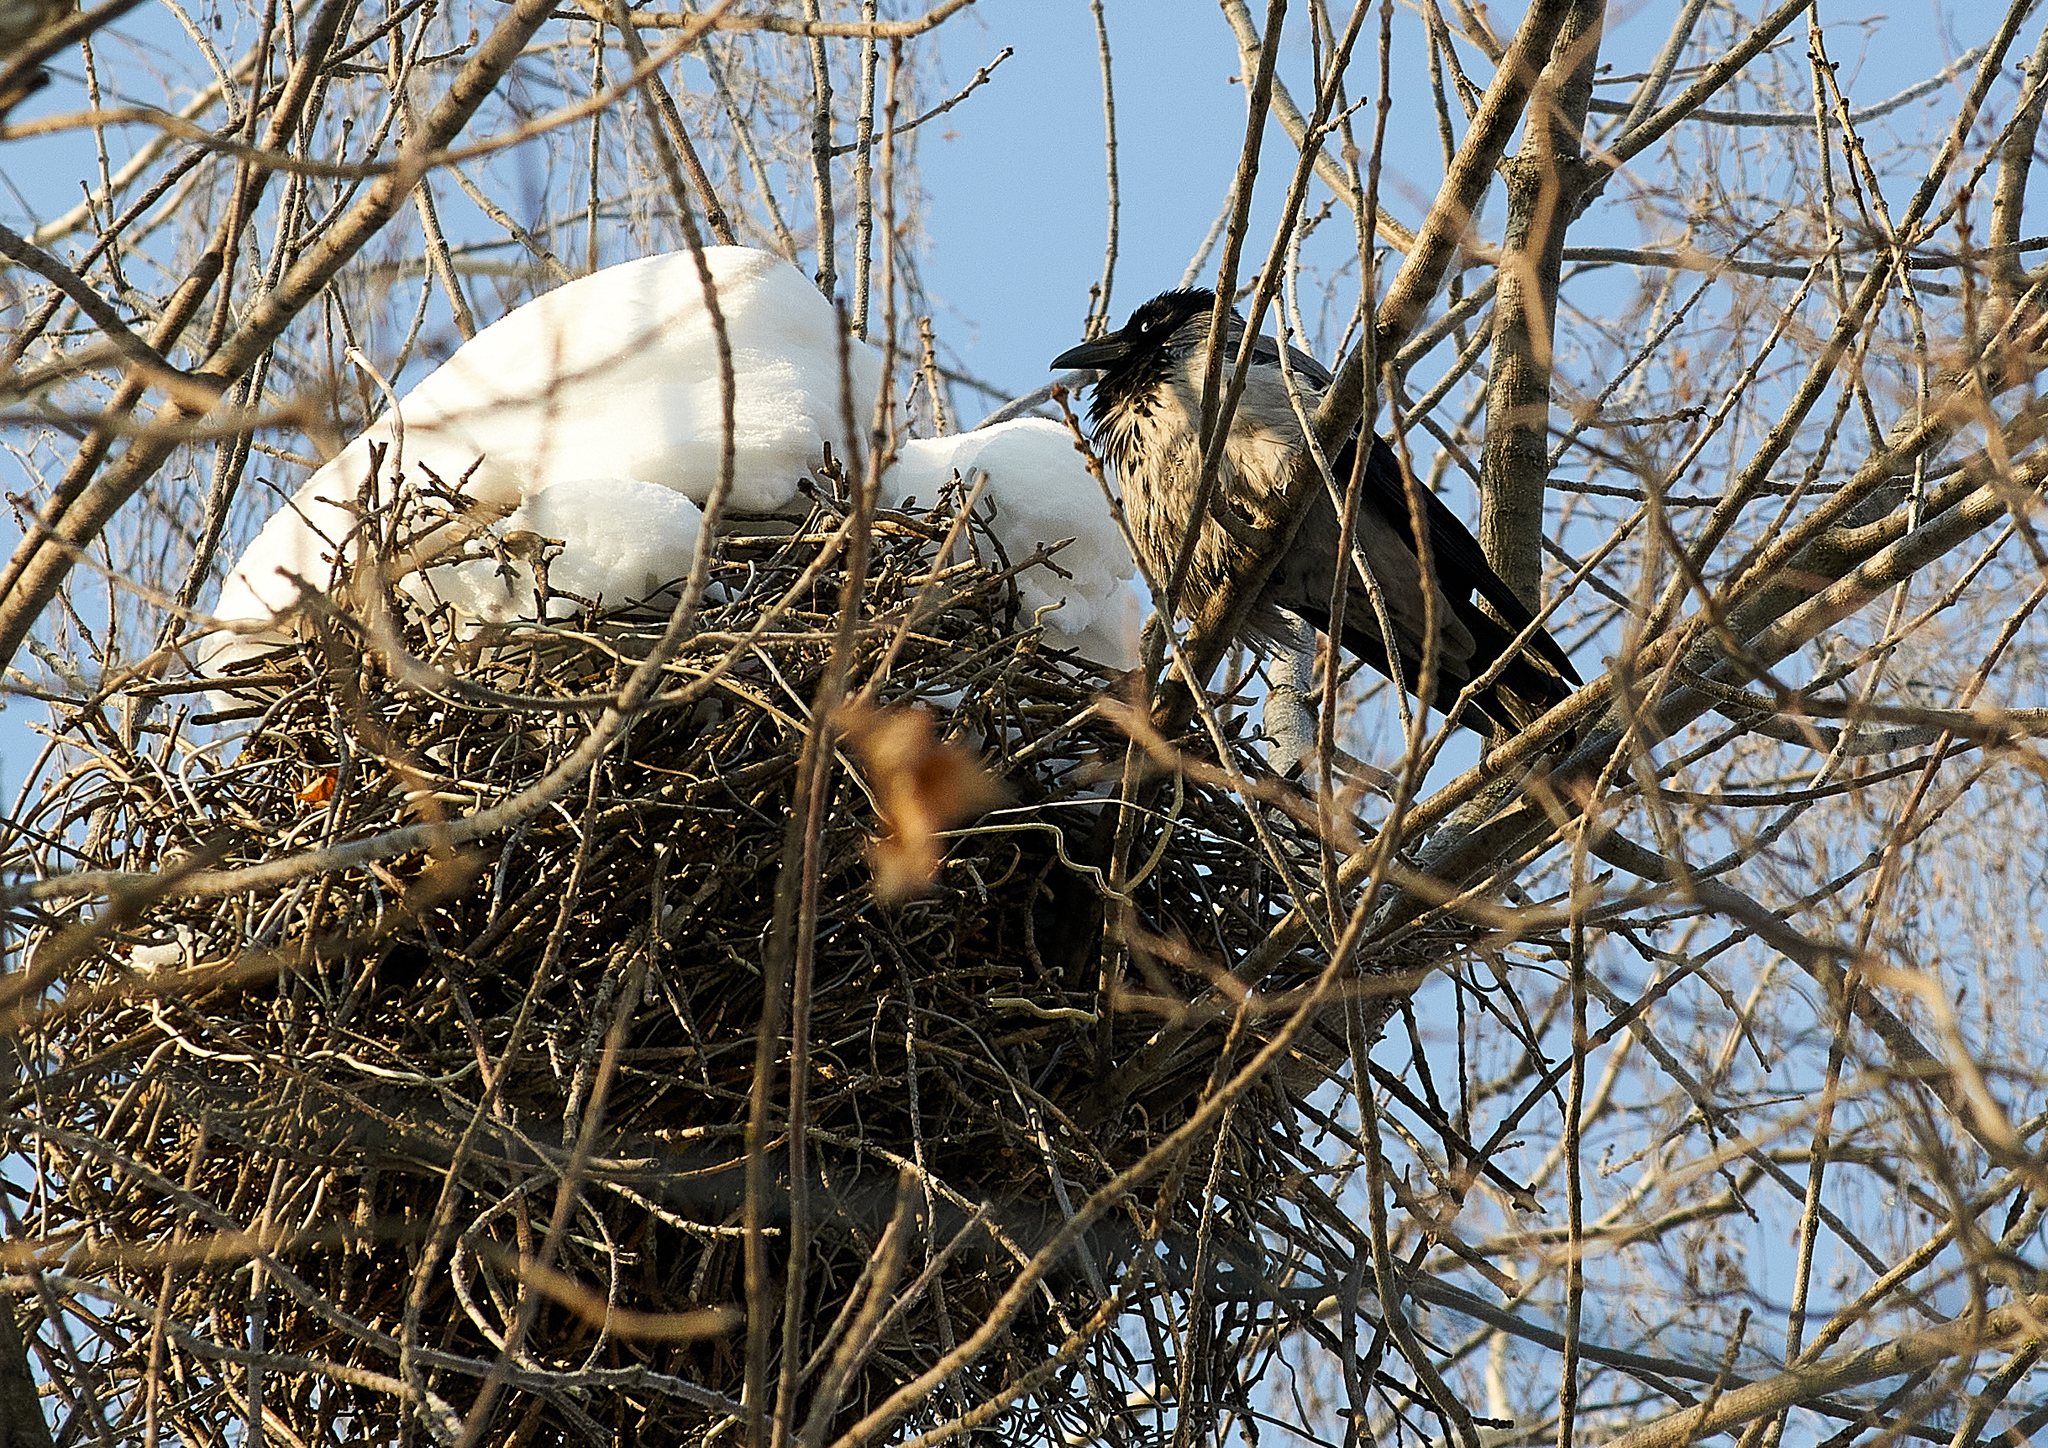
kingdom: Animalia
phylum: Chordata
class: Aves
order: Passeriformes
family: Corvidae
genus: Corvus
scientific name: Corvus cornix
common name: Hooded crow
